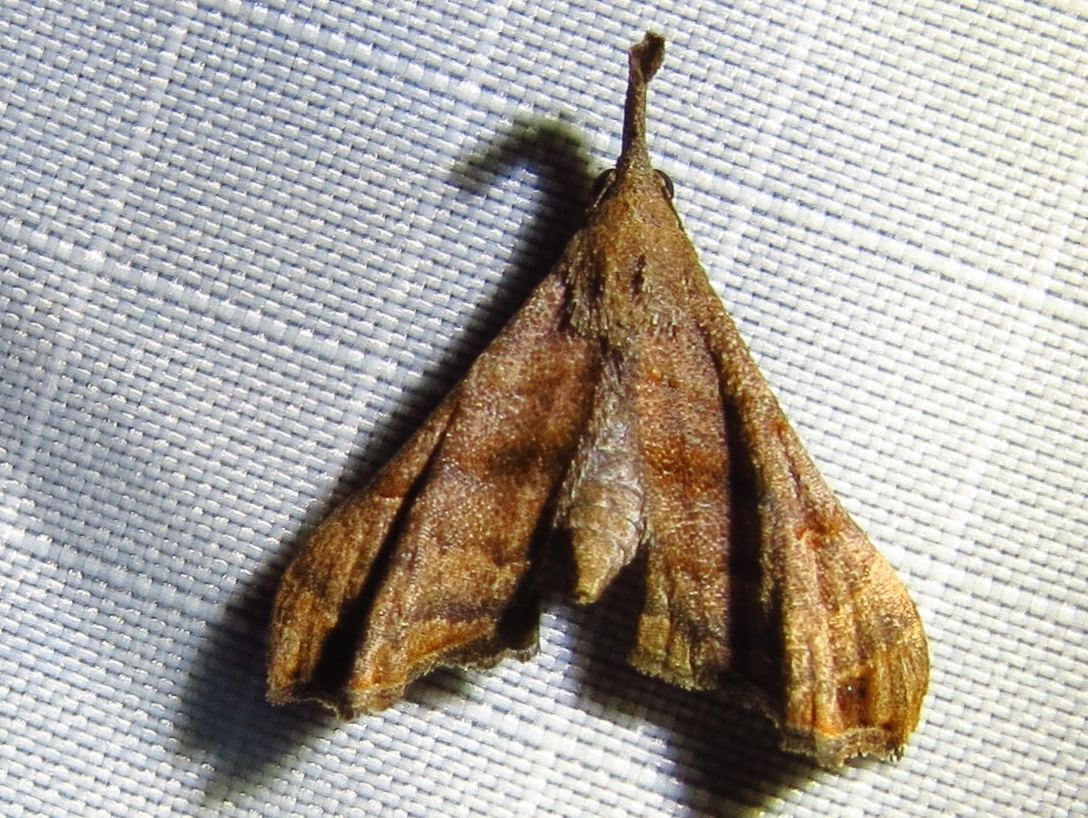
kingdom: Animalia
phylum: Arthropoda
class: Insecta
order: Lepidoptera
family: Erebidae
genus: Palthis
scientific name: Palthis asopialis
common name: Faint-spotted palthis moth
